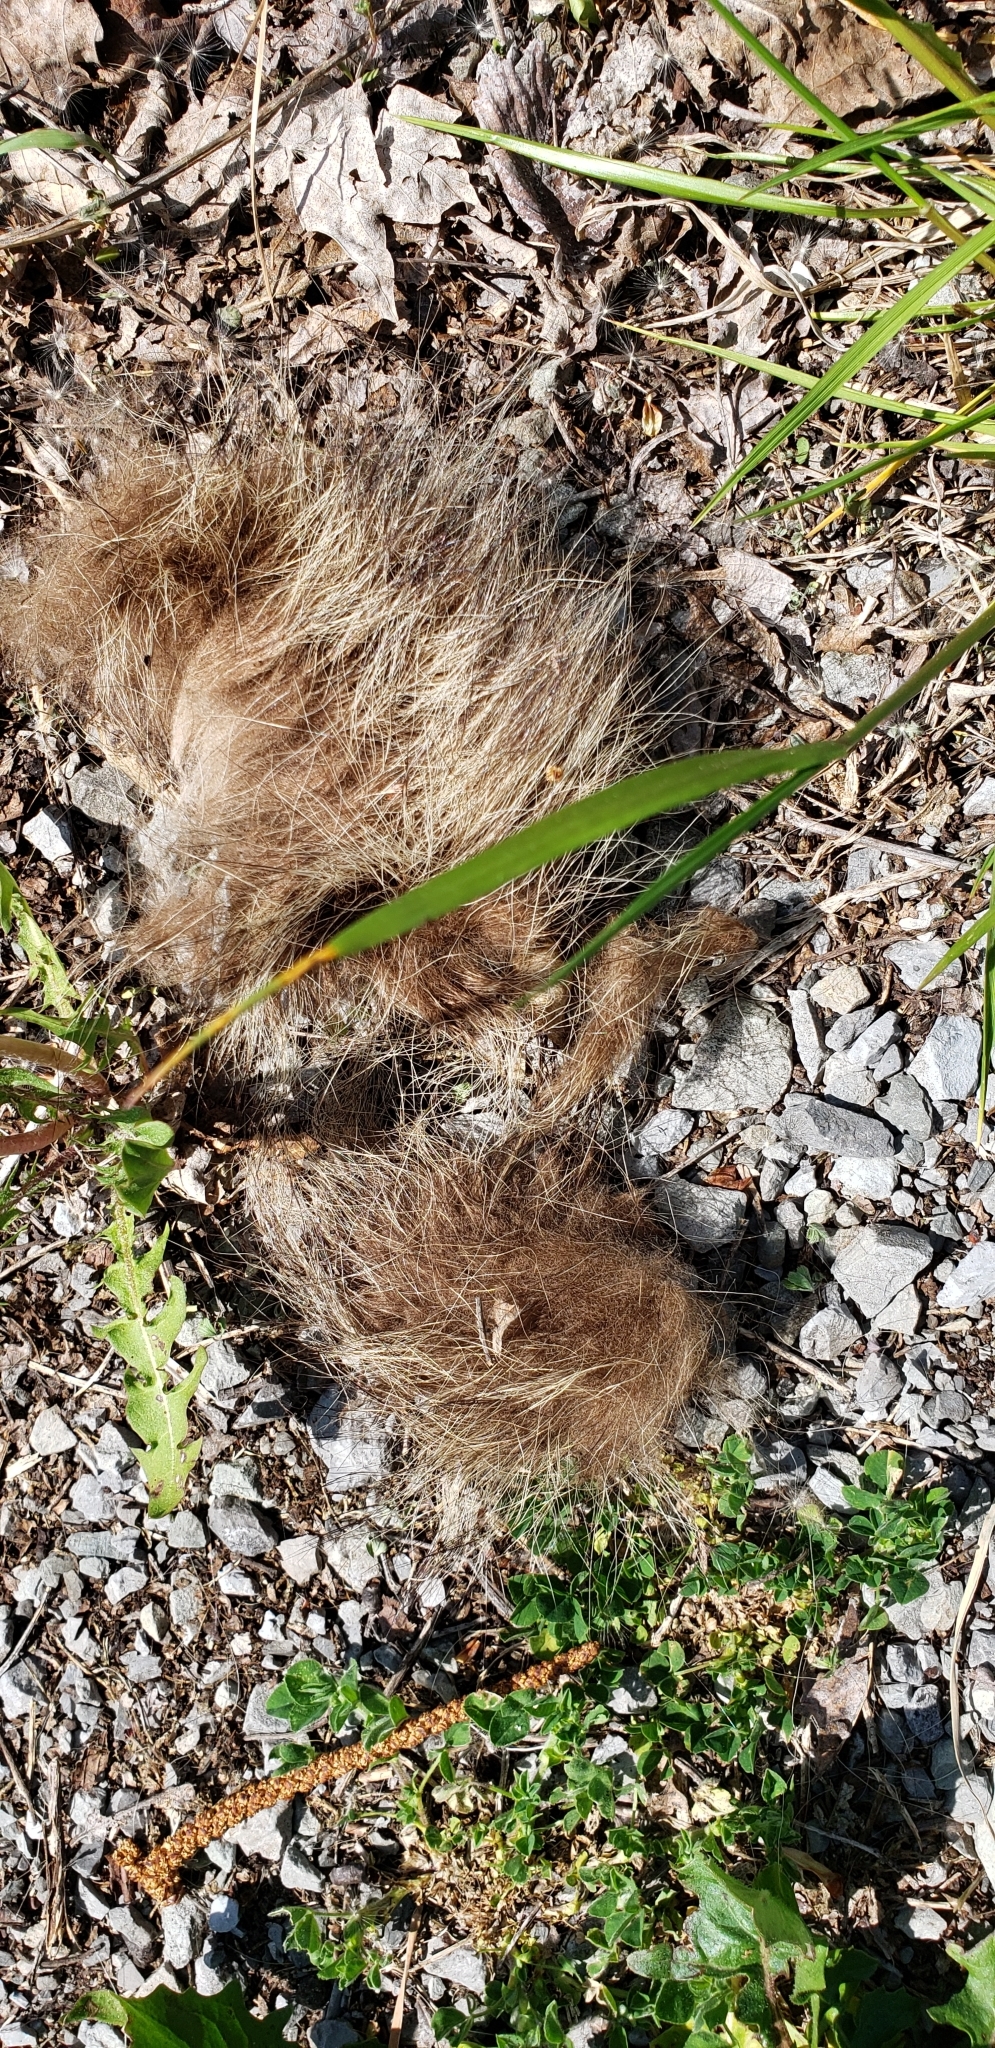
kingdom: Animalia
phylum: Chordata
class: Mammalia
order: Carnivora
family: Procyonidae
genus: Procyon
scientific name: Procyon lotor
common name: Raccoon
